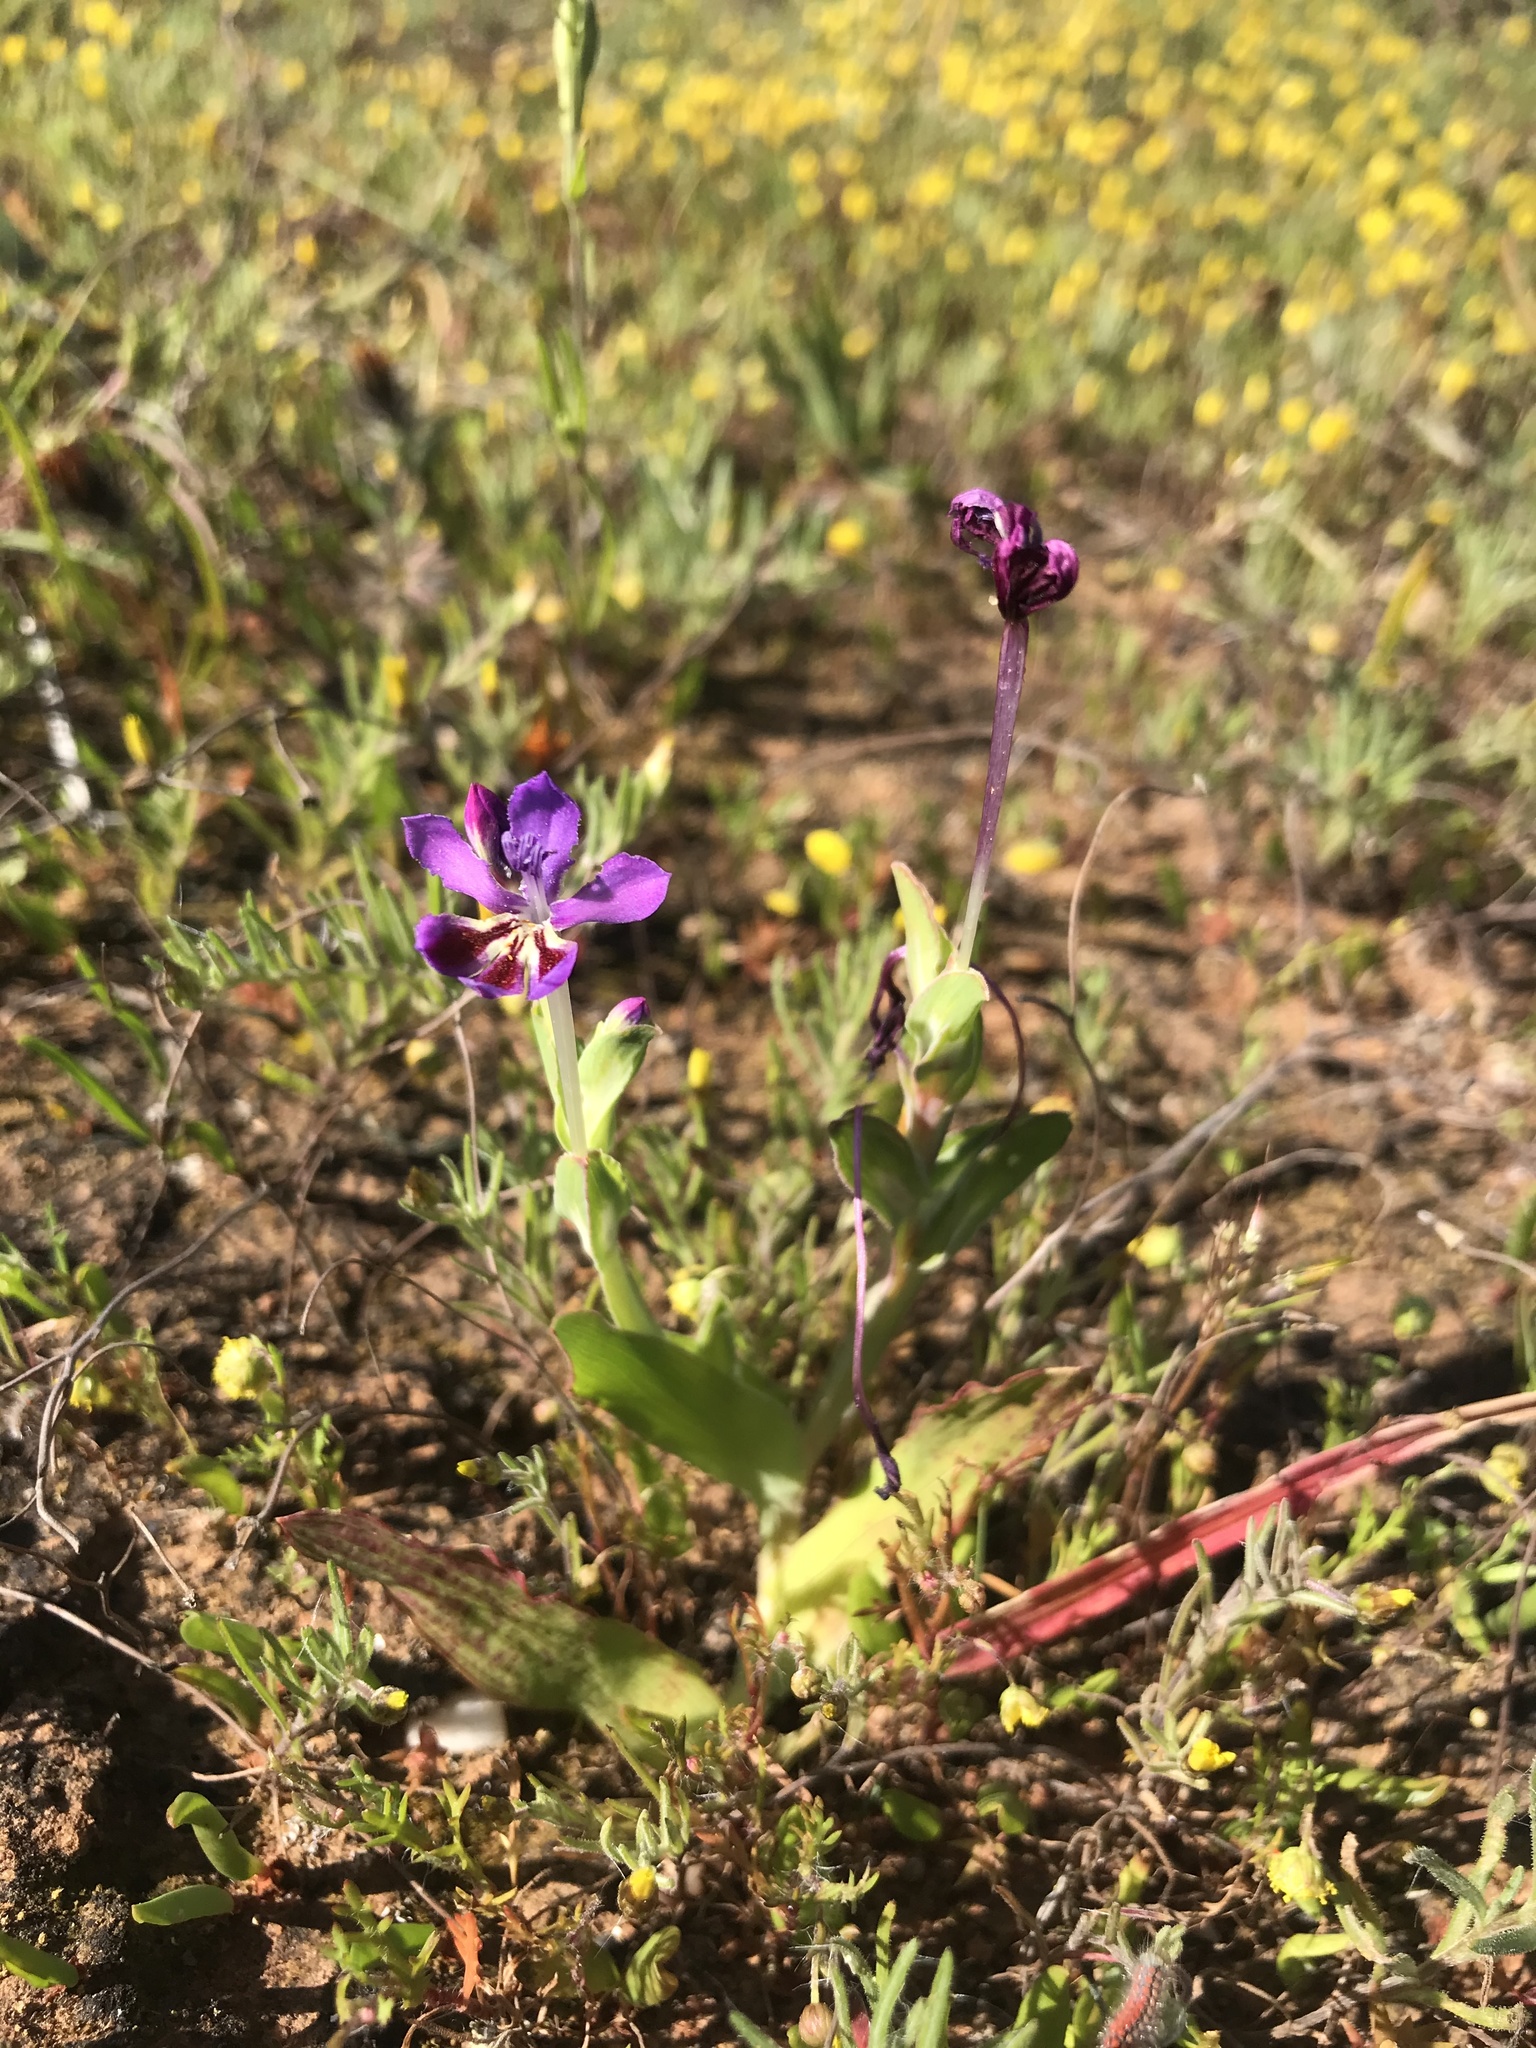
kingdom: Plantae
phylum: Tracheophyta
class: Liliopsida
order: Asparagales
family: Iridaceae
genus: Lapeirousia
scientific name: Lapeirousia jacquinii
